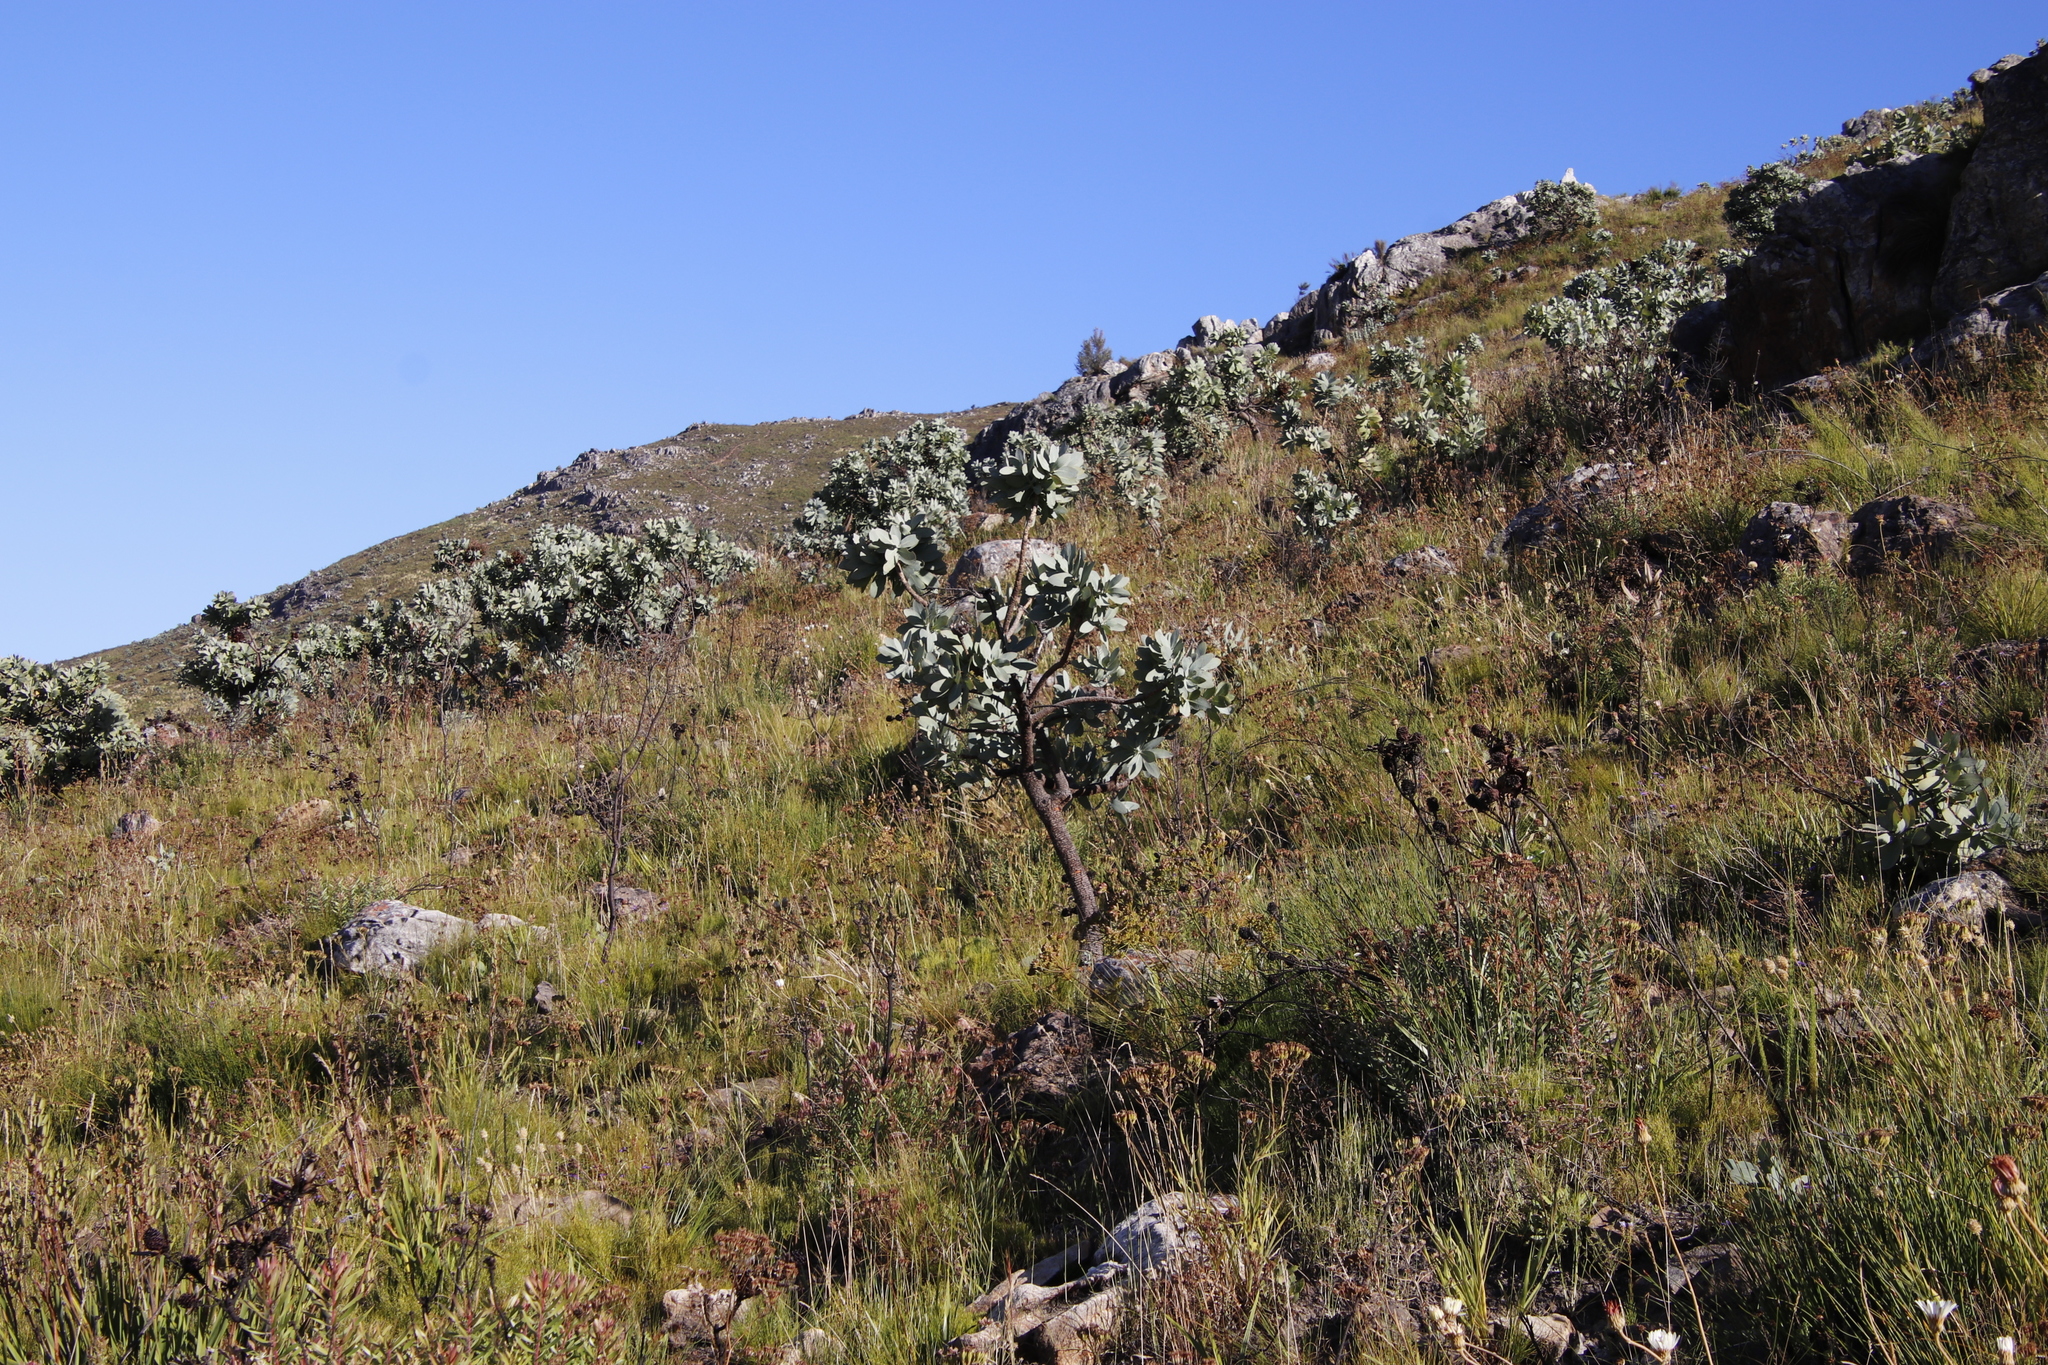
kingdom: Plantae
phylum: Tracheophyta
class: Magnoliopsida
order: Proteales
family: Proteaceae
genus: Protea
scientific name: Protea nitida
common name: Tree protea
